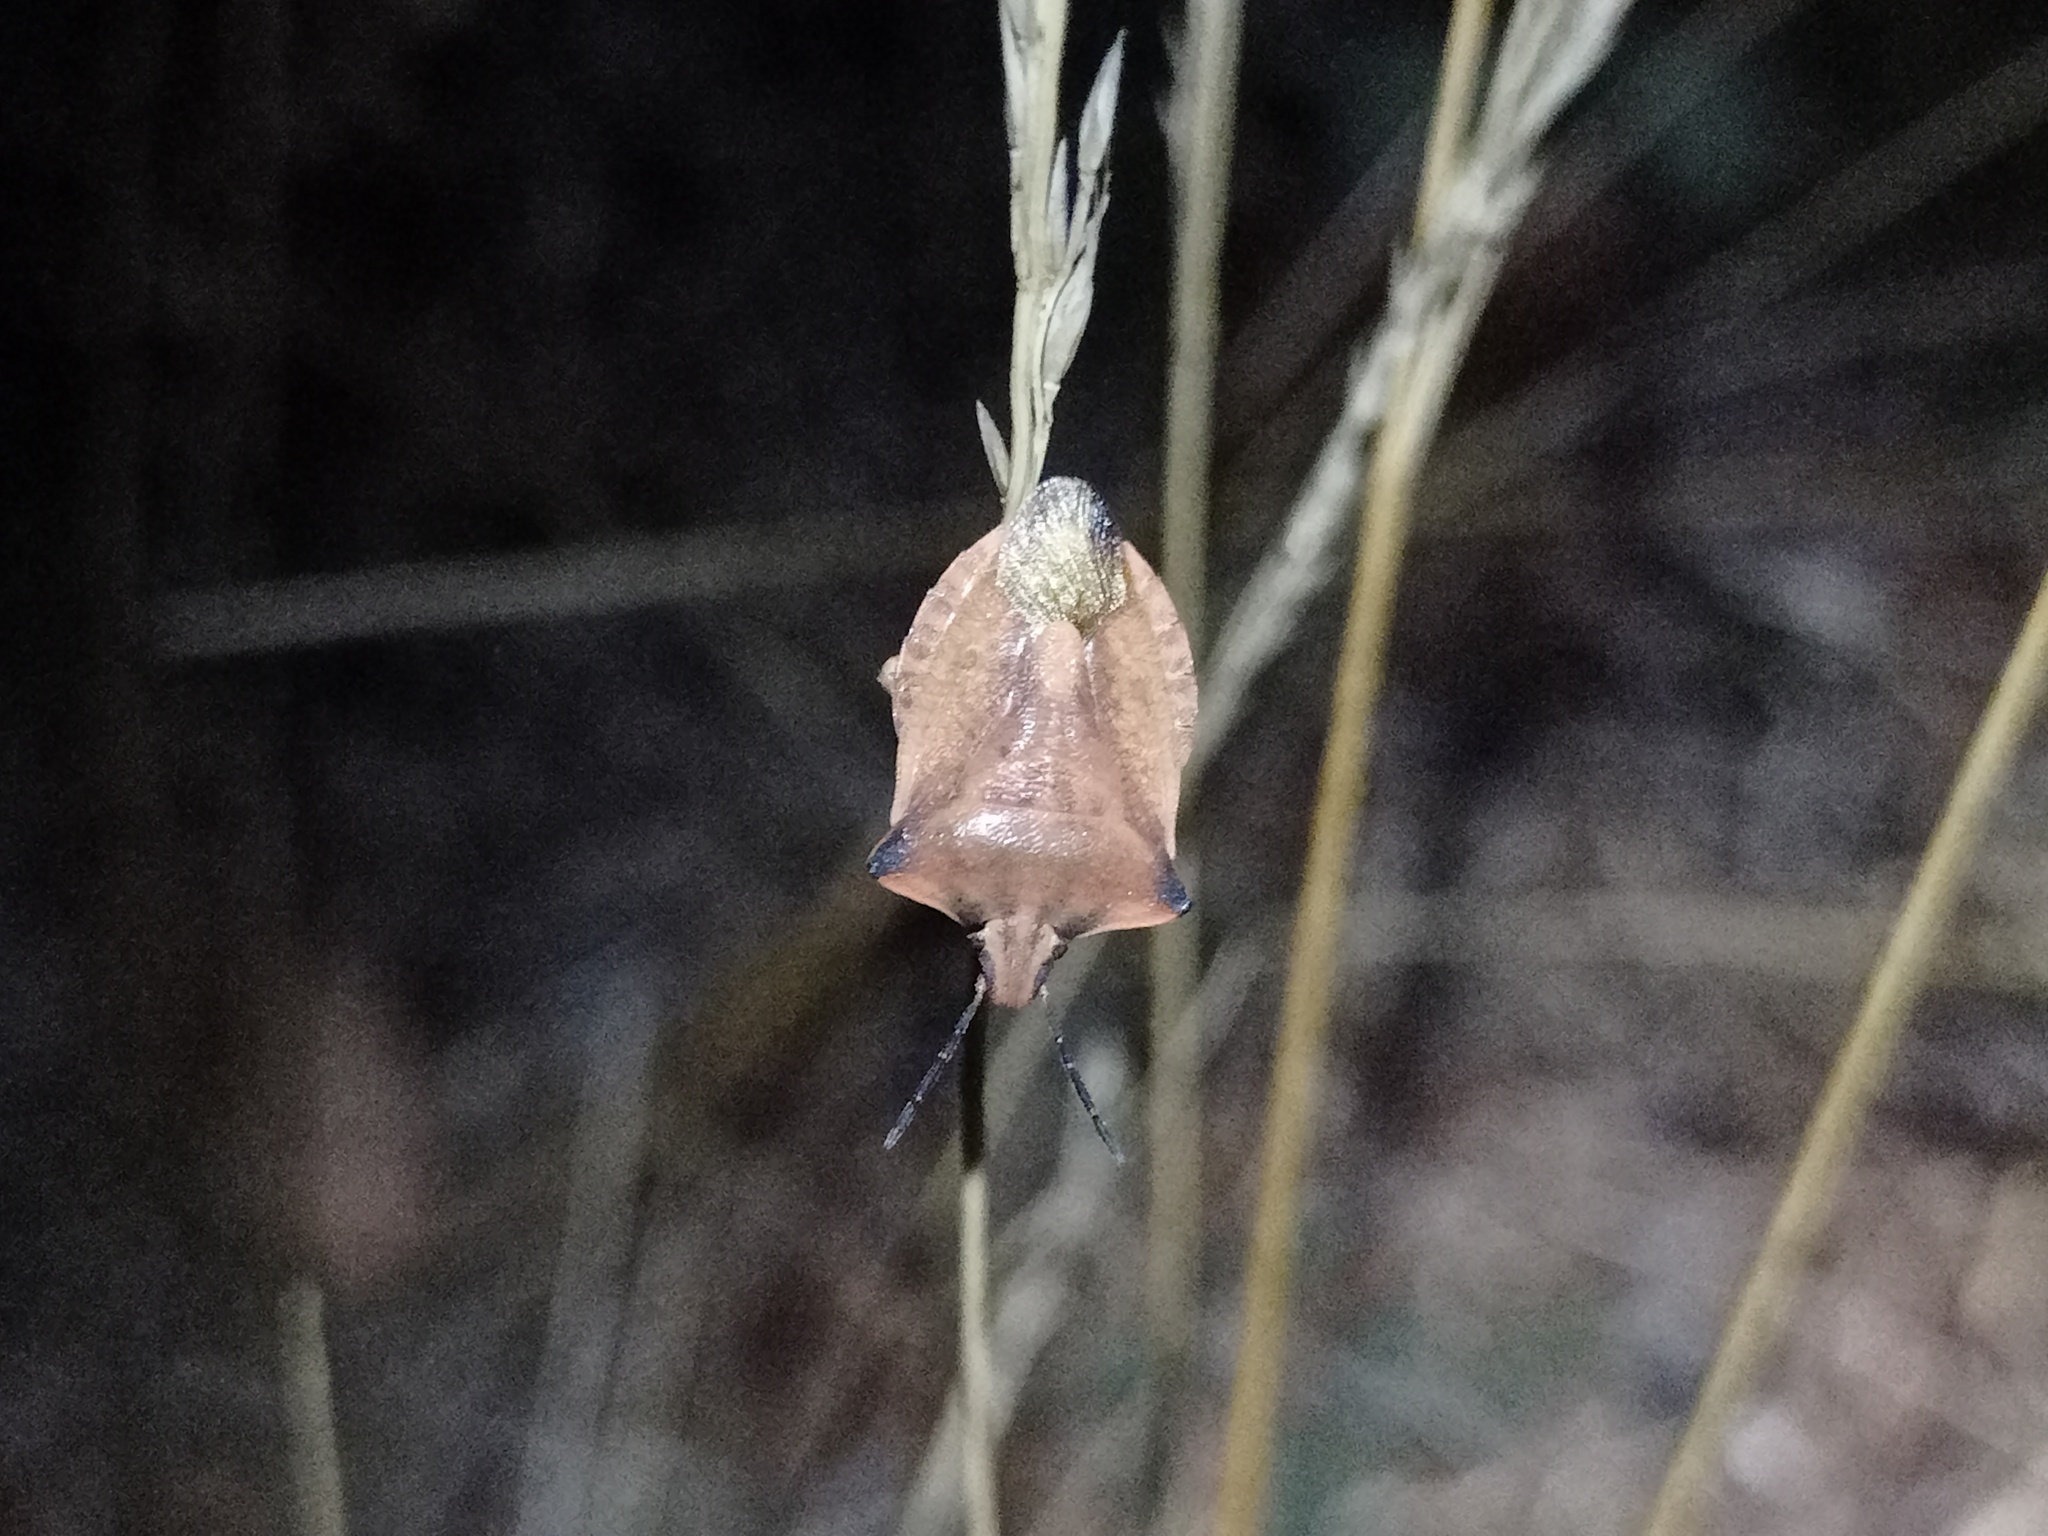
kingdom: Animalia
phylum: Arthropoda
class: Insecta
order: Hemiptera
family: Pentatomidae
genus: Carpocoris
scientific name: Carpocoris fuscispinus
